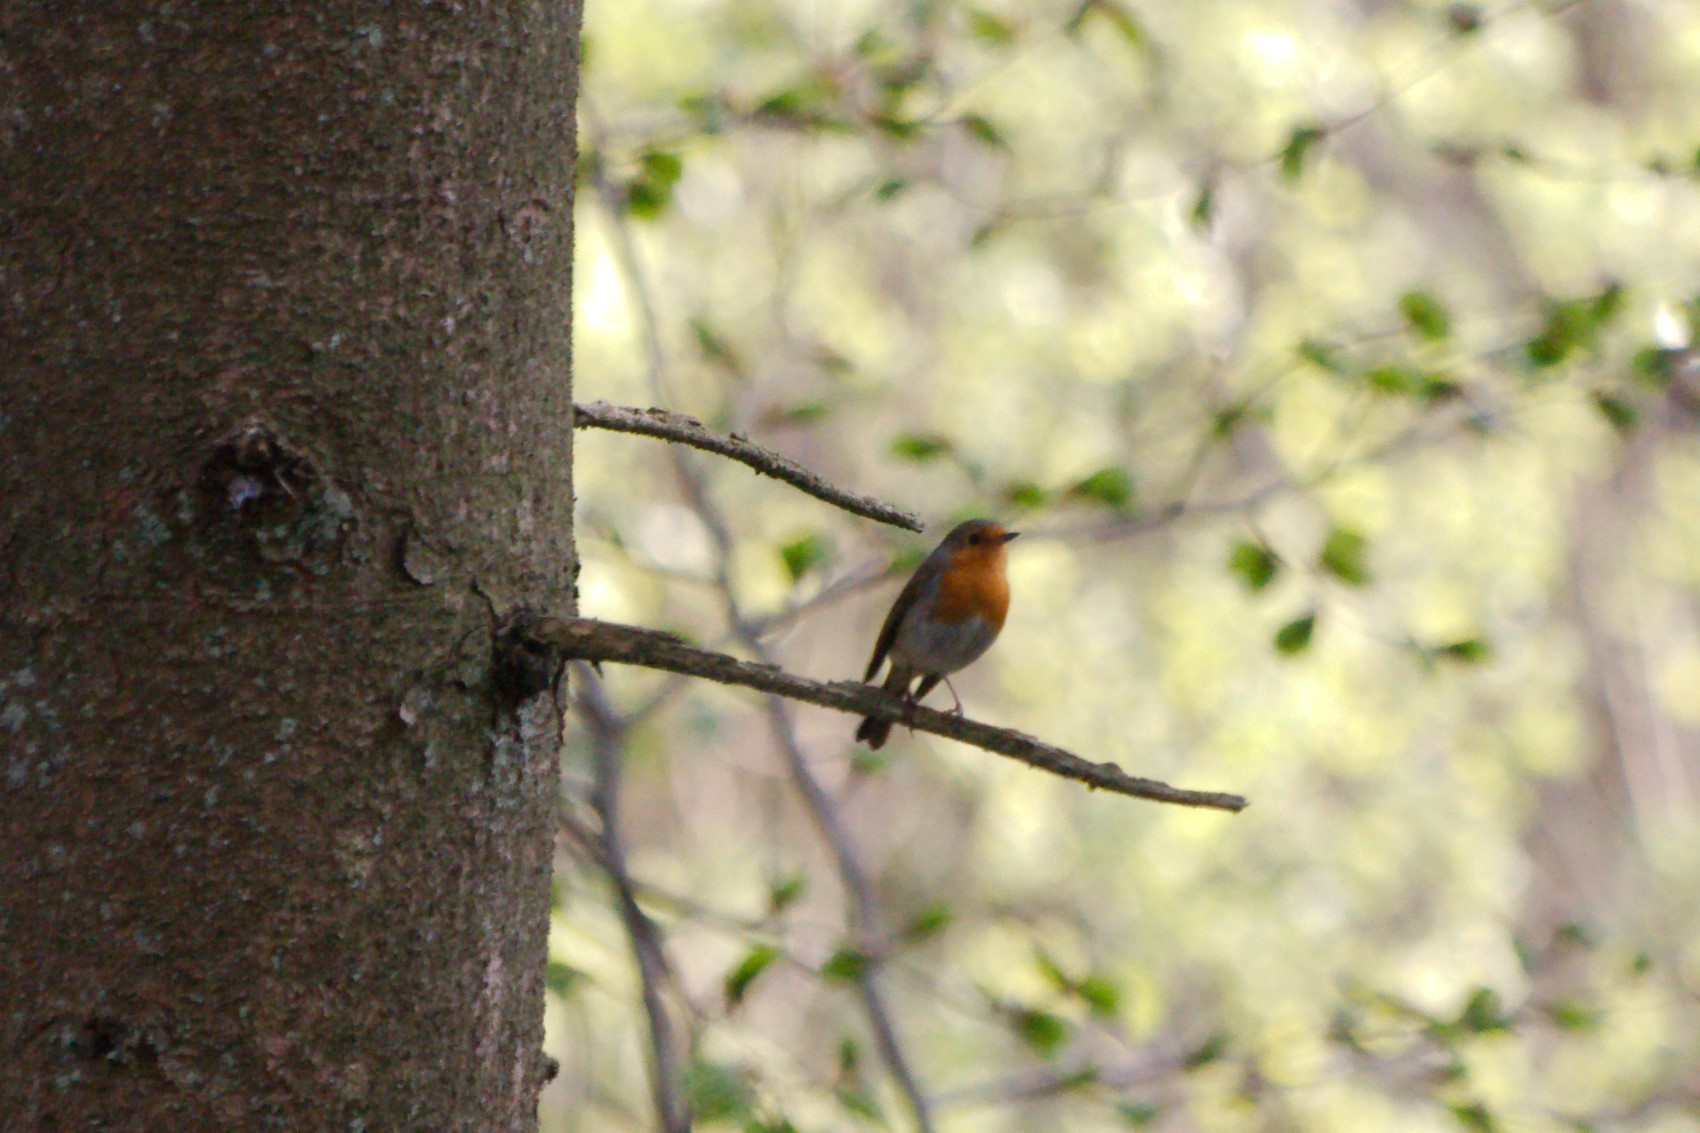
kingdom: Animalia
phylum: Chordata
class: Aves
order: Passeriformes
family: Muscicapidae
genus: Erithacus
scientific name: Erithacus rubecula
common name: European robin
